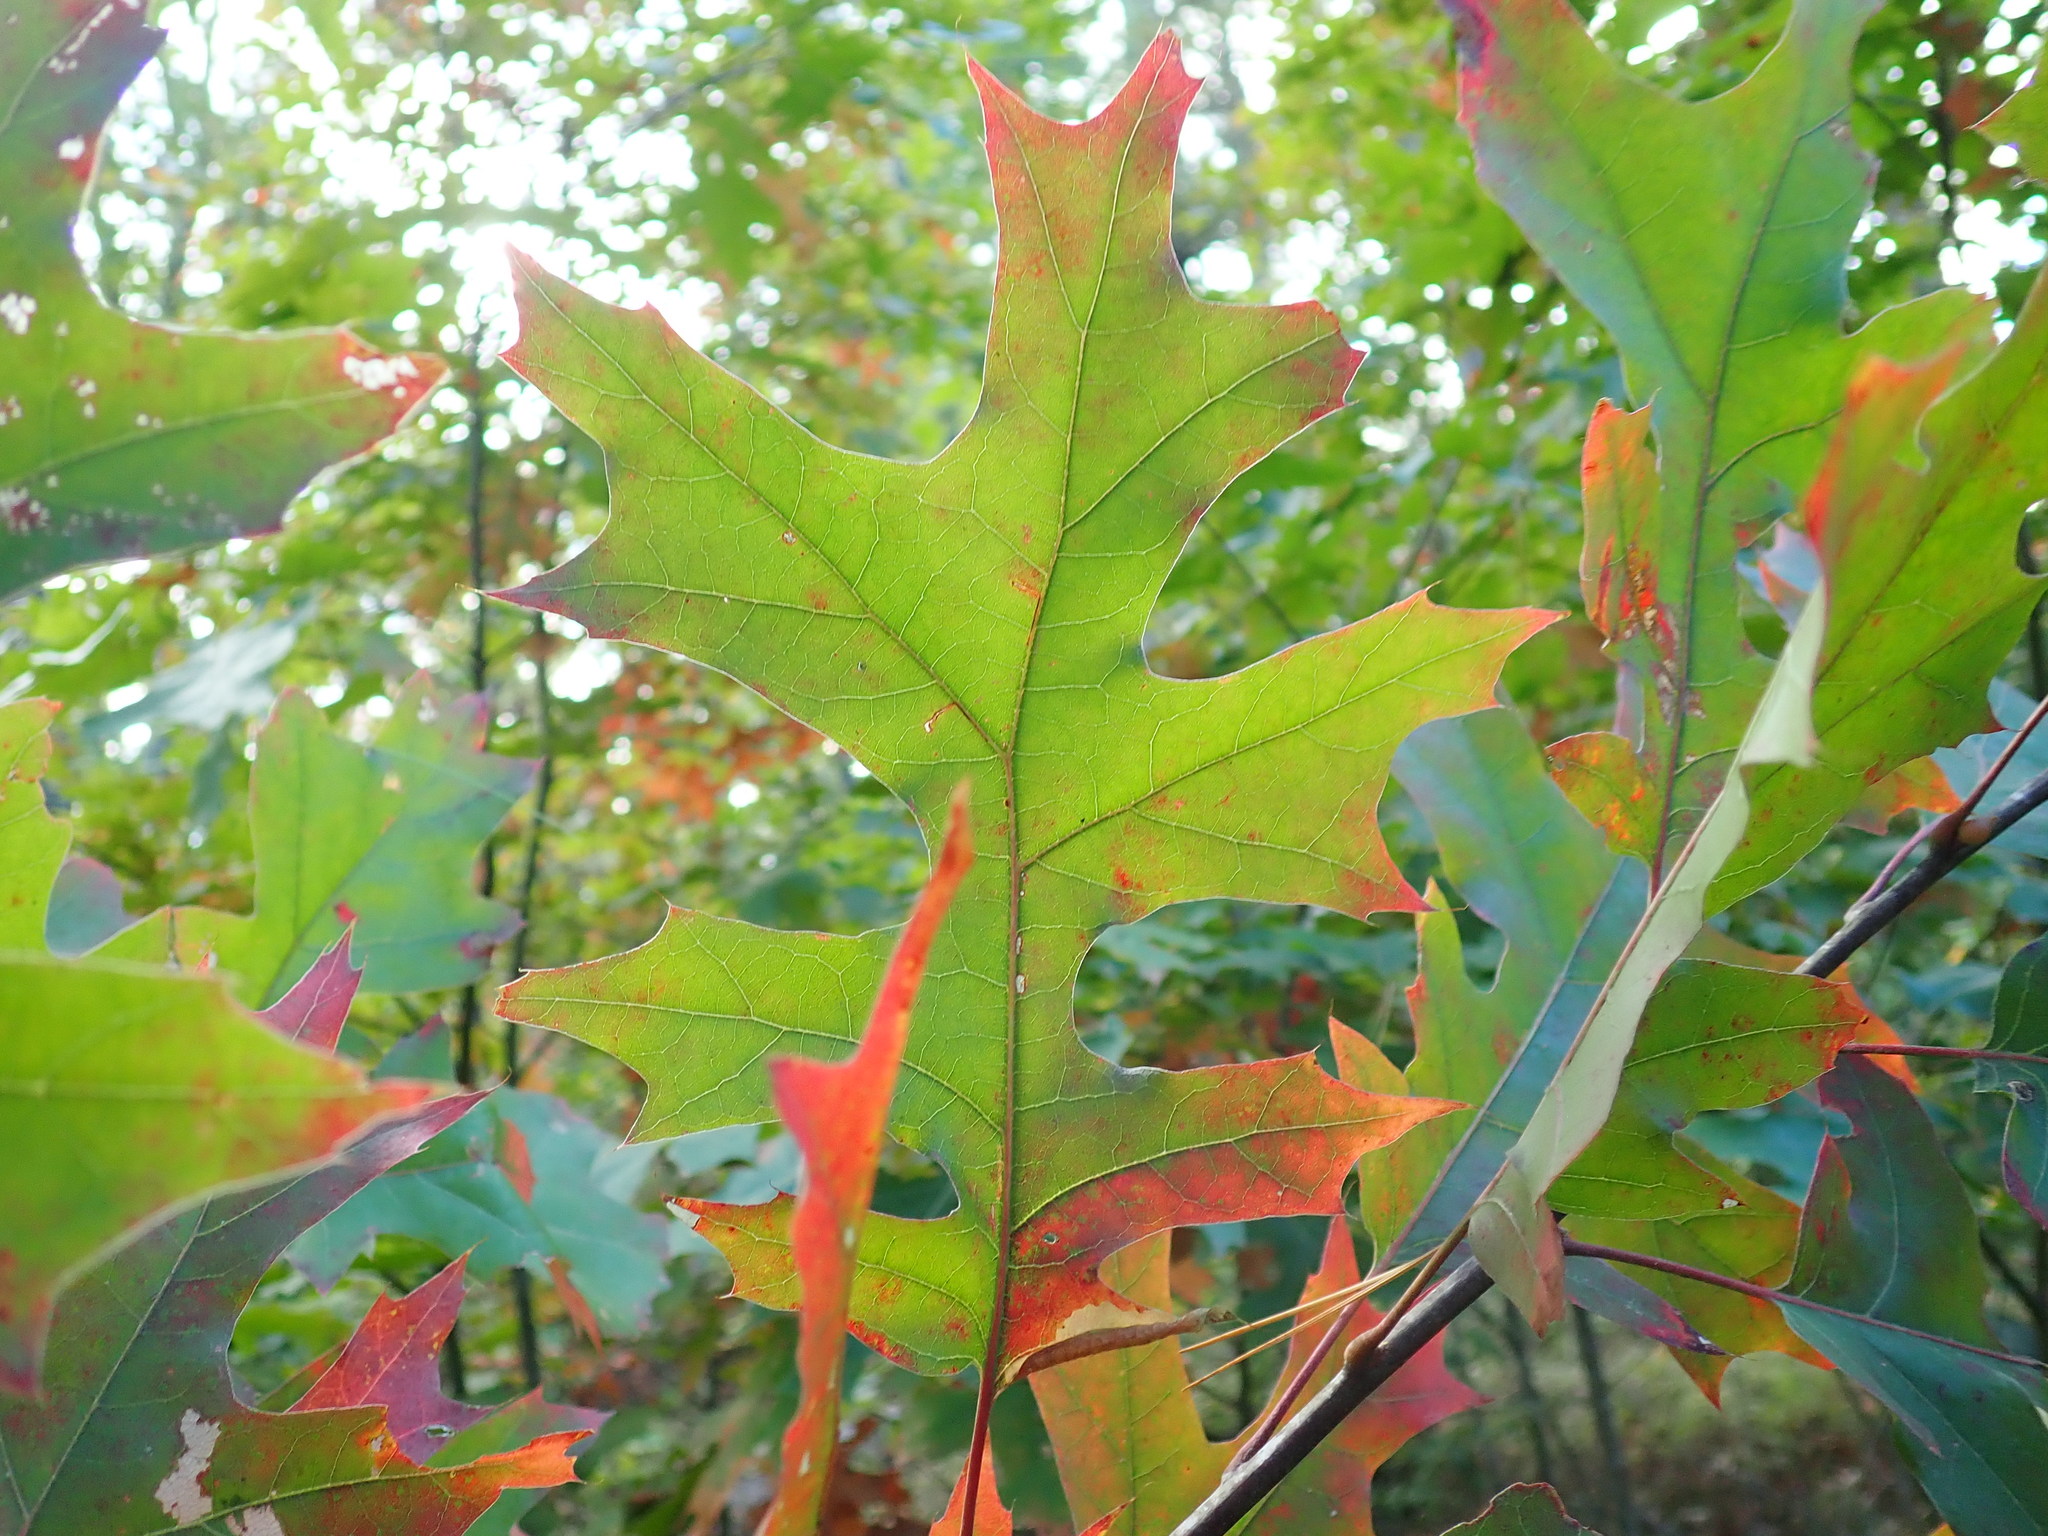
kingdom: Plantae
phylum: Tracheophyta
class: Magnoliopsida
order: Fagales
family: Fagaceae
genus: Quercus
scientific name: Quercus coccinea
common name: Scarlet oak
